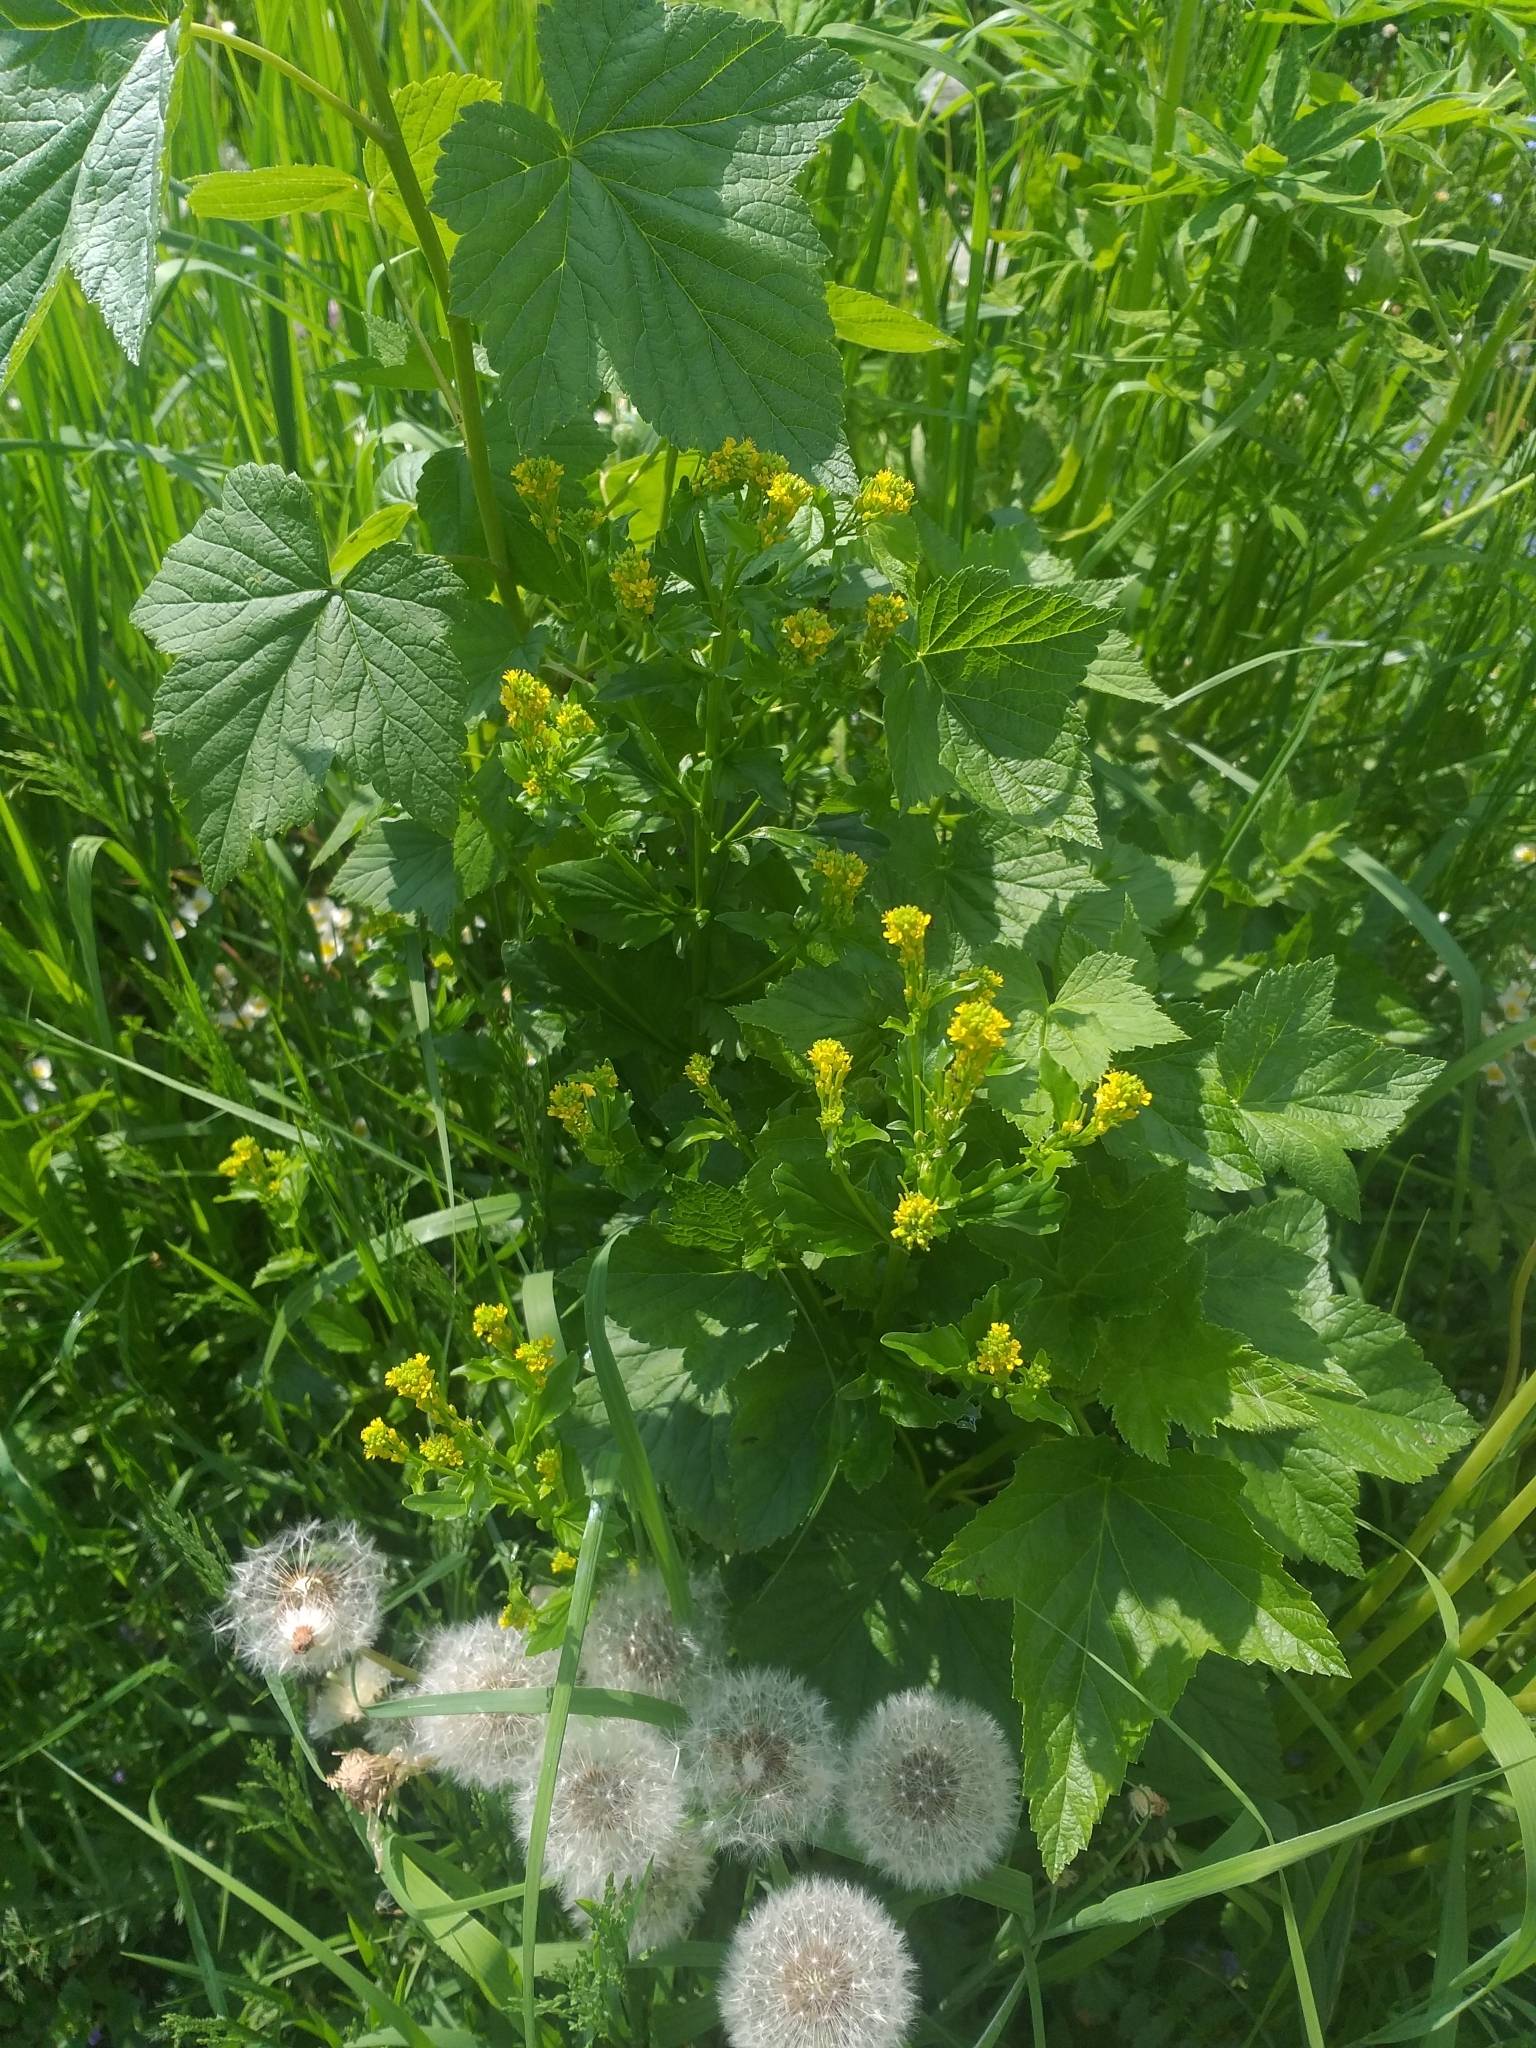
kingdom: Plantae
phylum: Tracheophyta
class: Magnoliopsida
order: Brassicales
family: Brassicaceae
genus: Barbarea
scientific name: Barbarea stricta
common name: Small-flowered winter-cress
